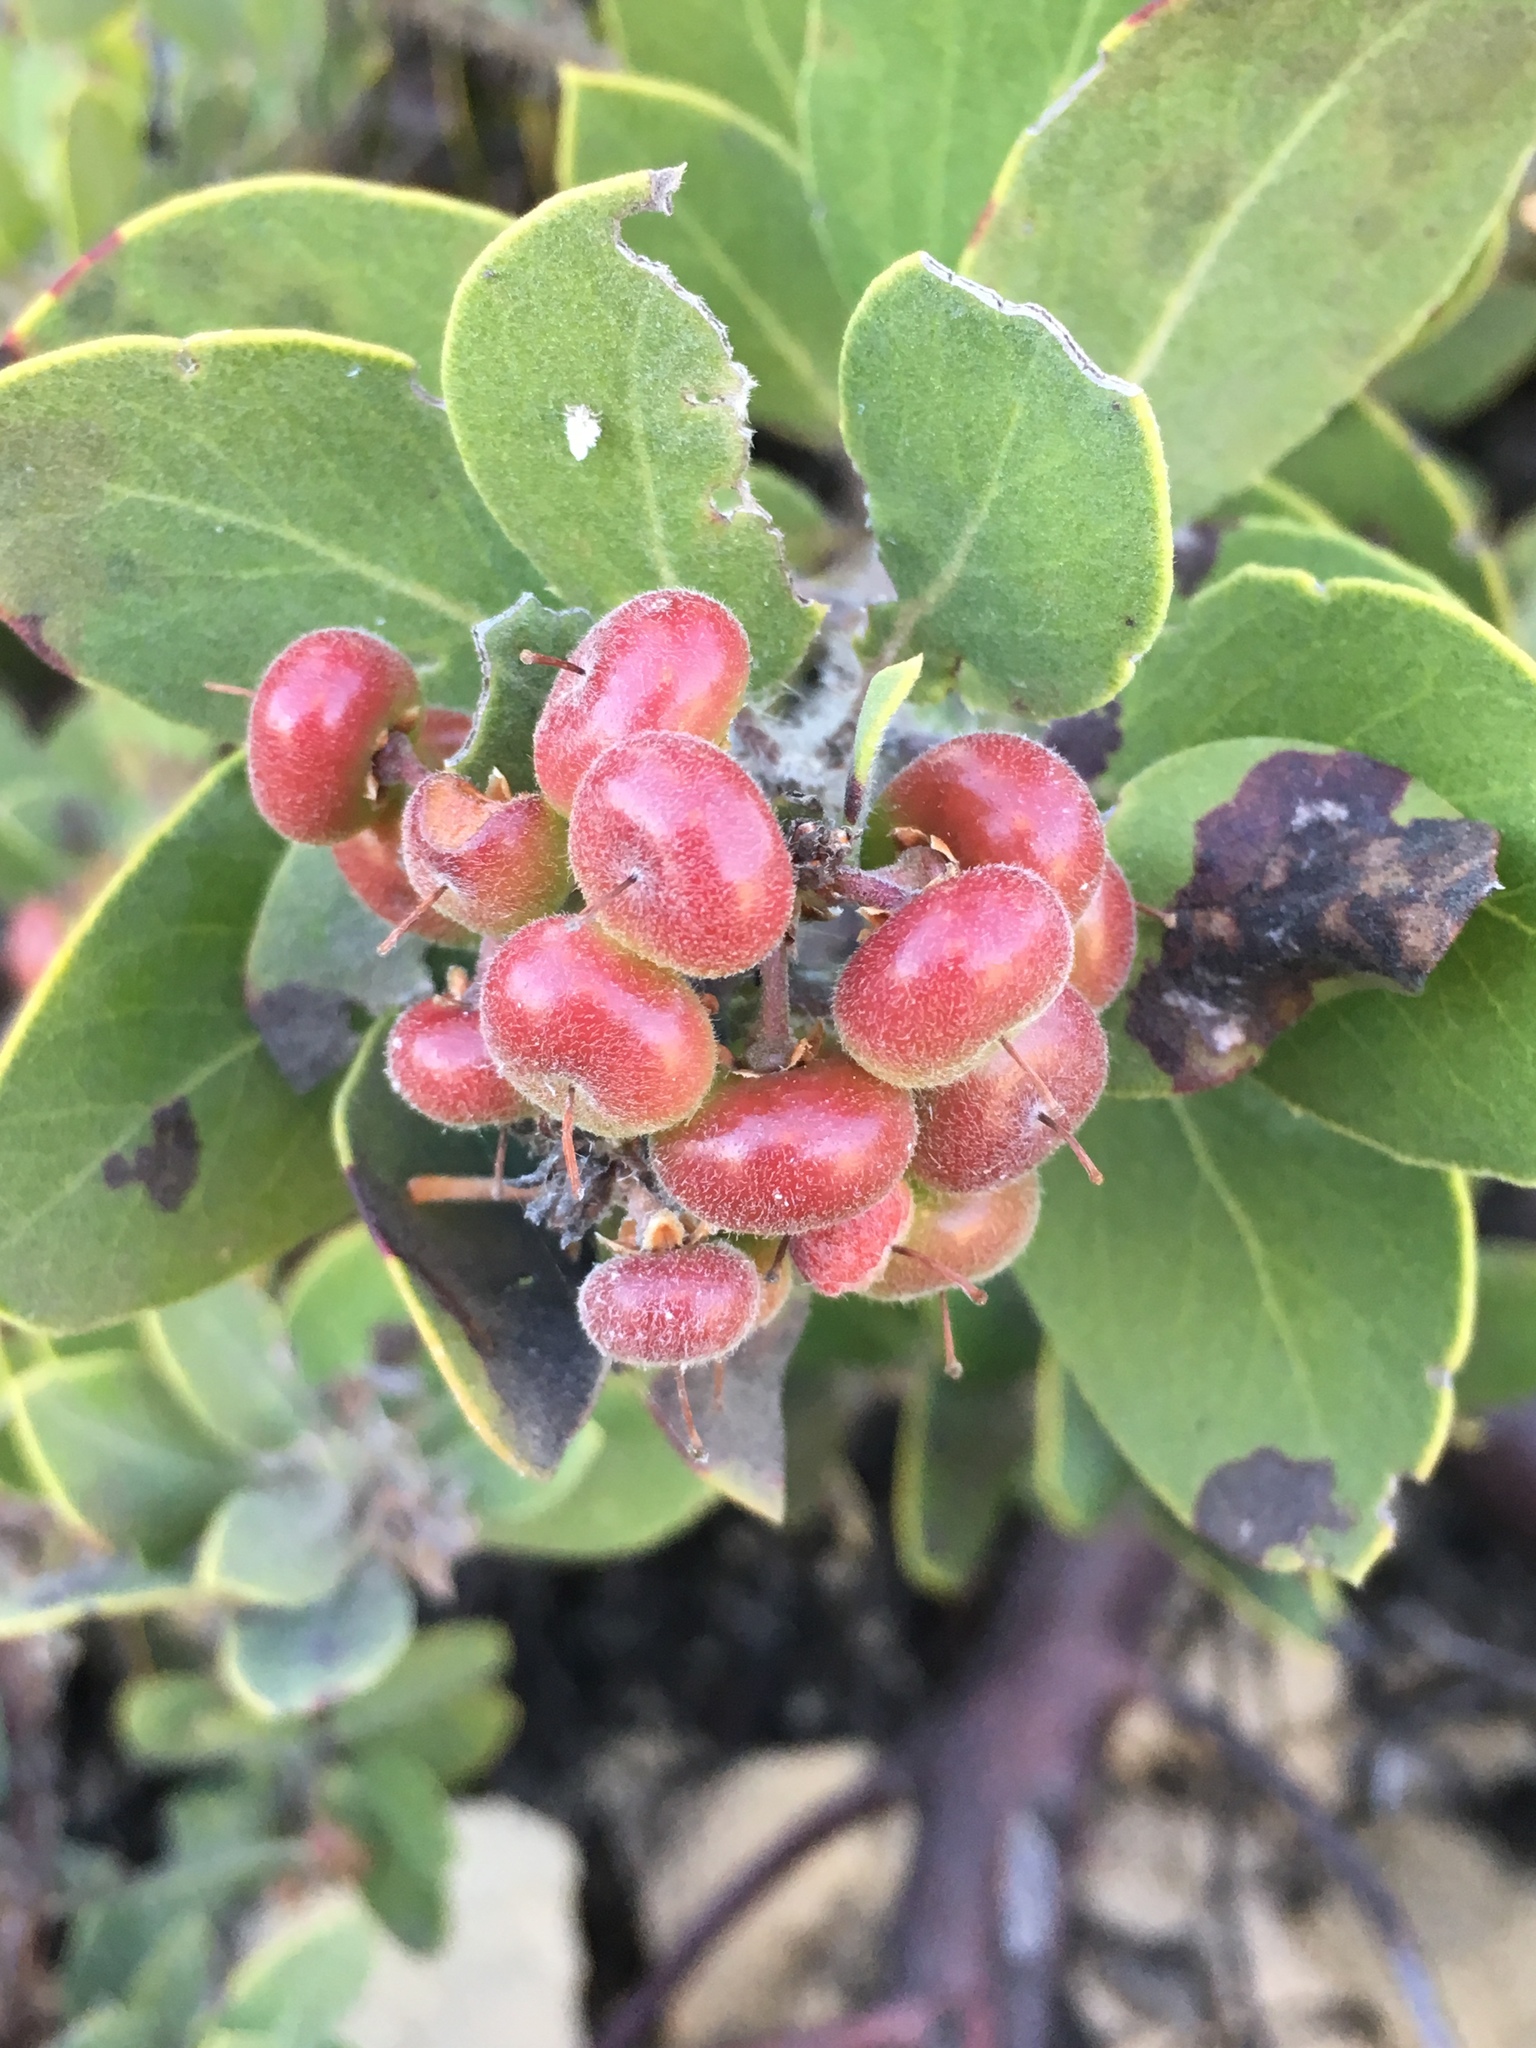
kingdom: Plantae
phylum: Tracheophyta
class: Magnoliopsida
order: Ericales
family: Ericaceae
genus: Arctostaphylos
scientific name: Arctostaphylos glandulosa
